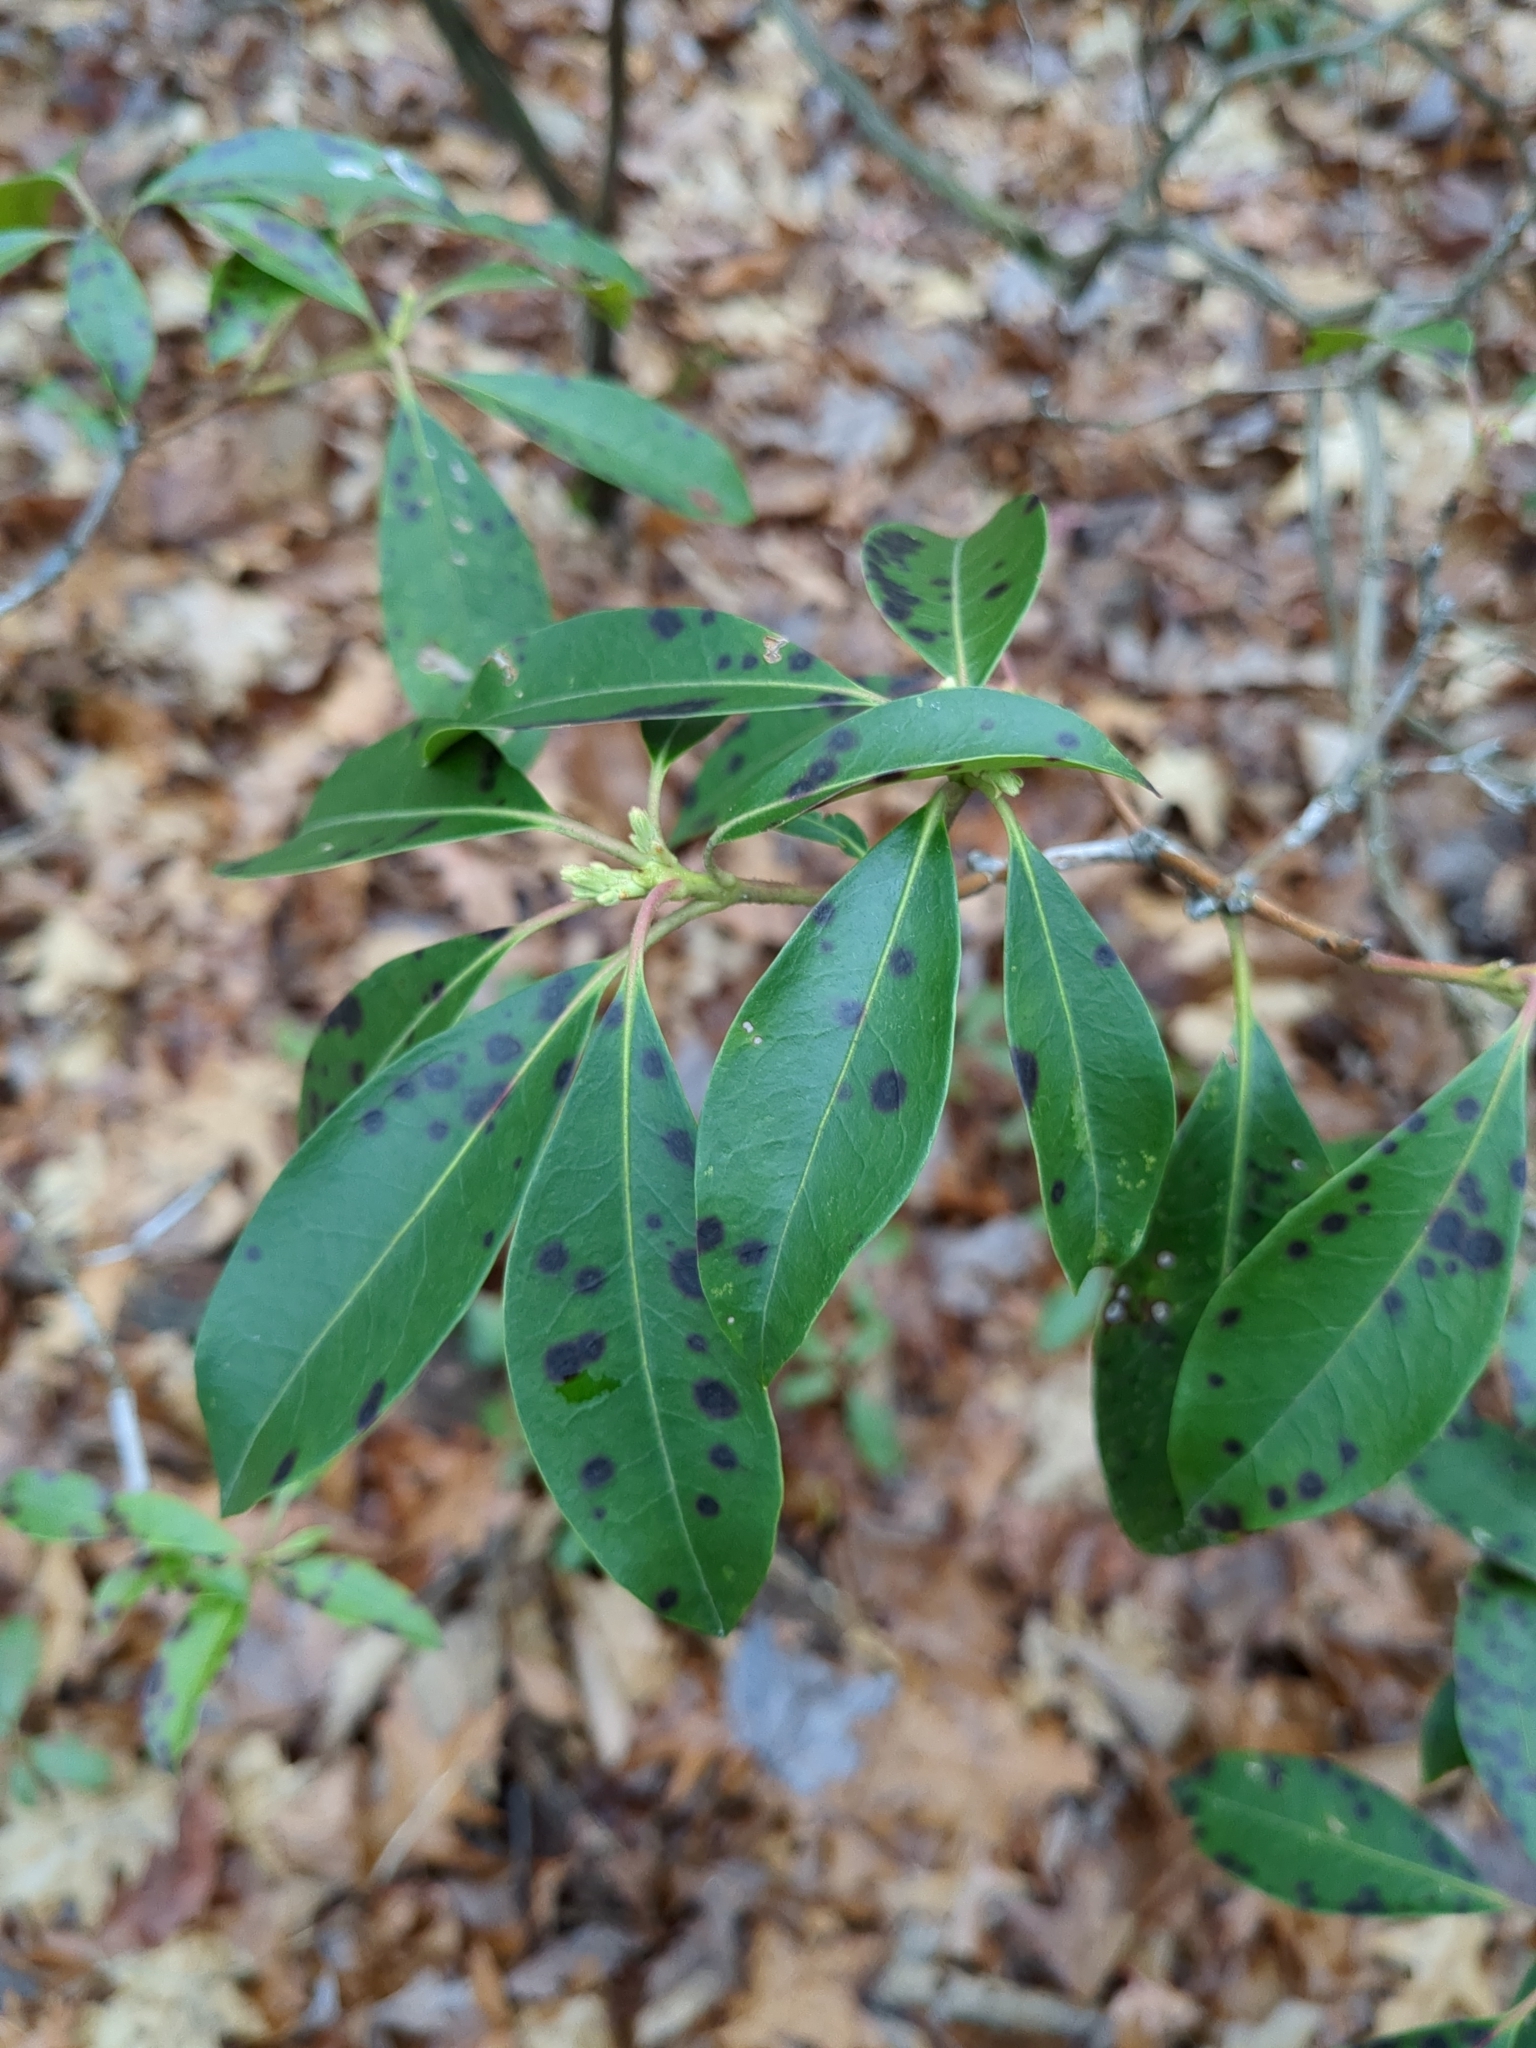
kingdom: Plantae
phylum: Tracheophyta
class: Magnoliopsida
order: Ericales
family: Ericaceae
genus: Kalmia
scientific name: Kalmia latifolia
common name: Mountain-laurel
